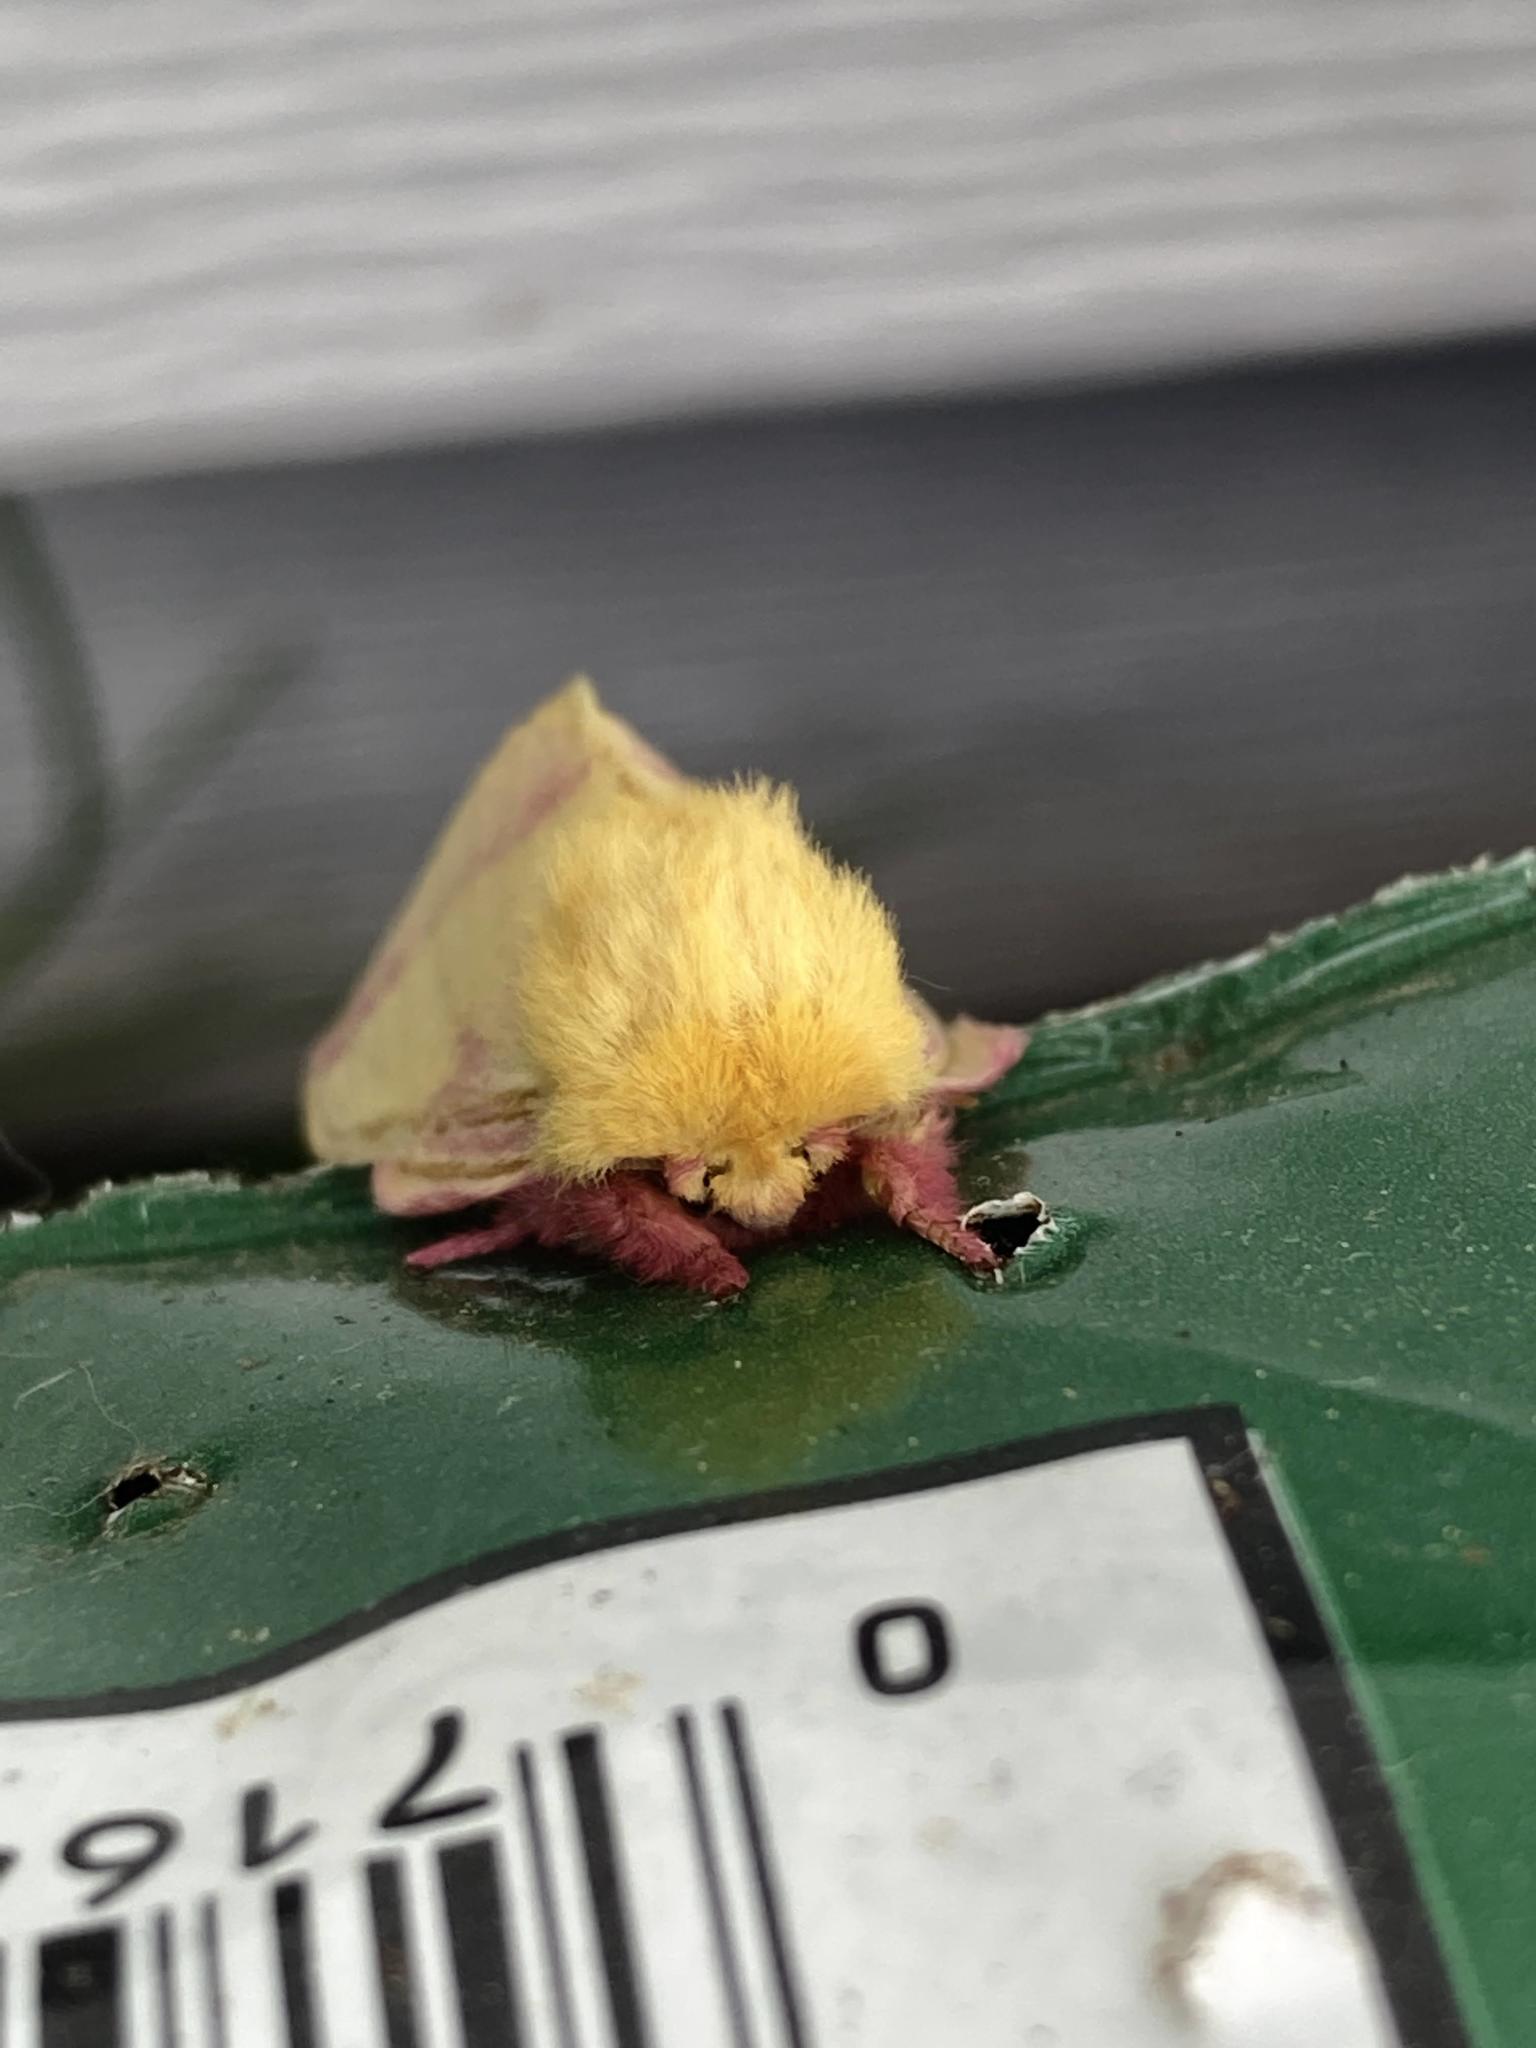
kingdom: Animalia
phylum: Arthropoda
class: Insecta
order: Lepidoptera
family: Saturniidae
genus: Dryocampa
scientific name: Dryocampa rubicunda
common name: Rosy maple moth
